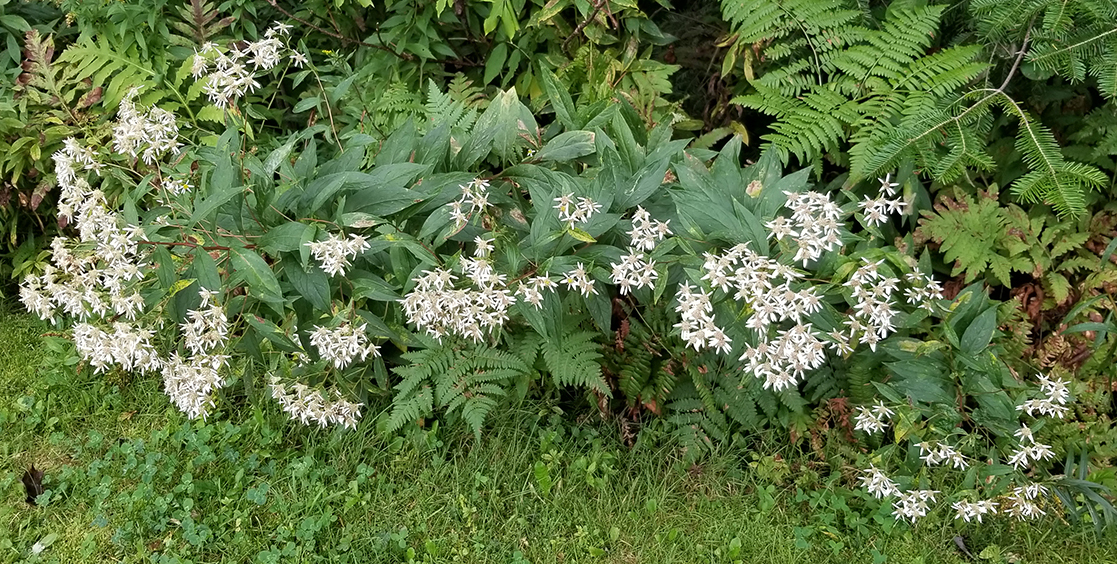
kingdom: Plantae
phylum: Tracheophyta
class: Magnoliopsida
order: Asterales
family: Asteraceae
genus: Doellingeria
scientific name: Doellingeria umbellata
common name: Flat-top white aster
